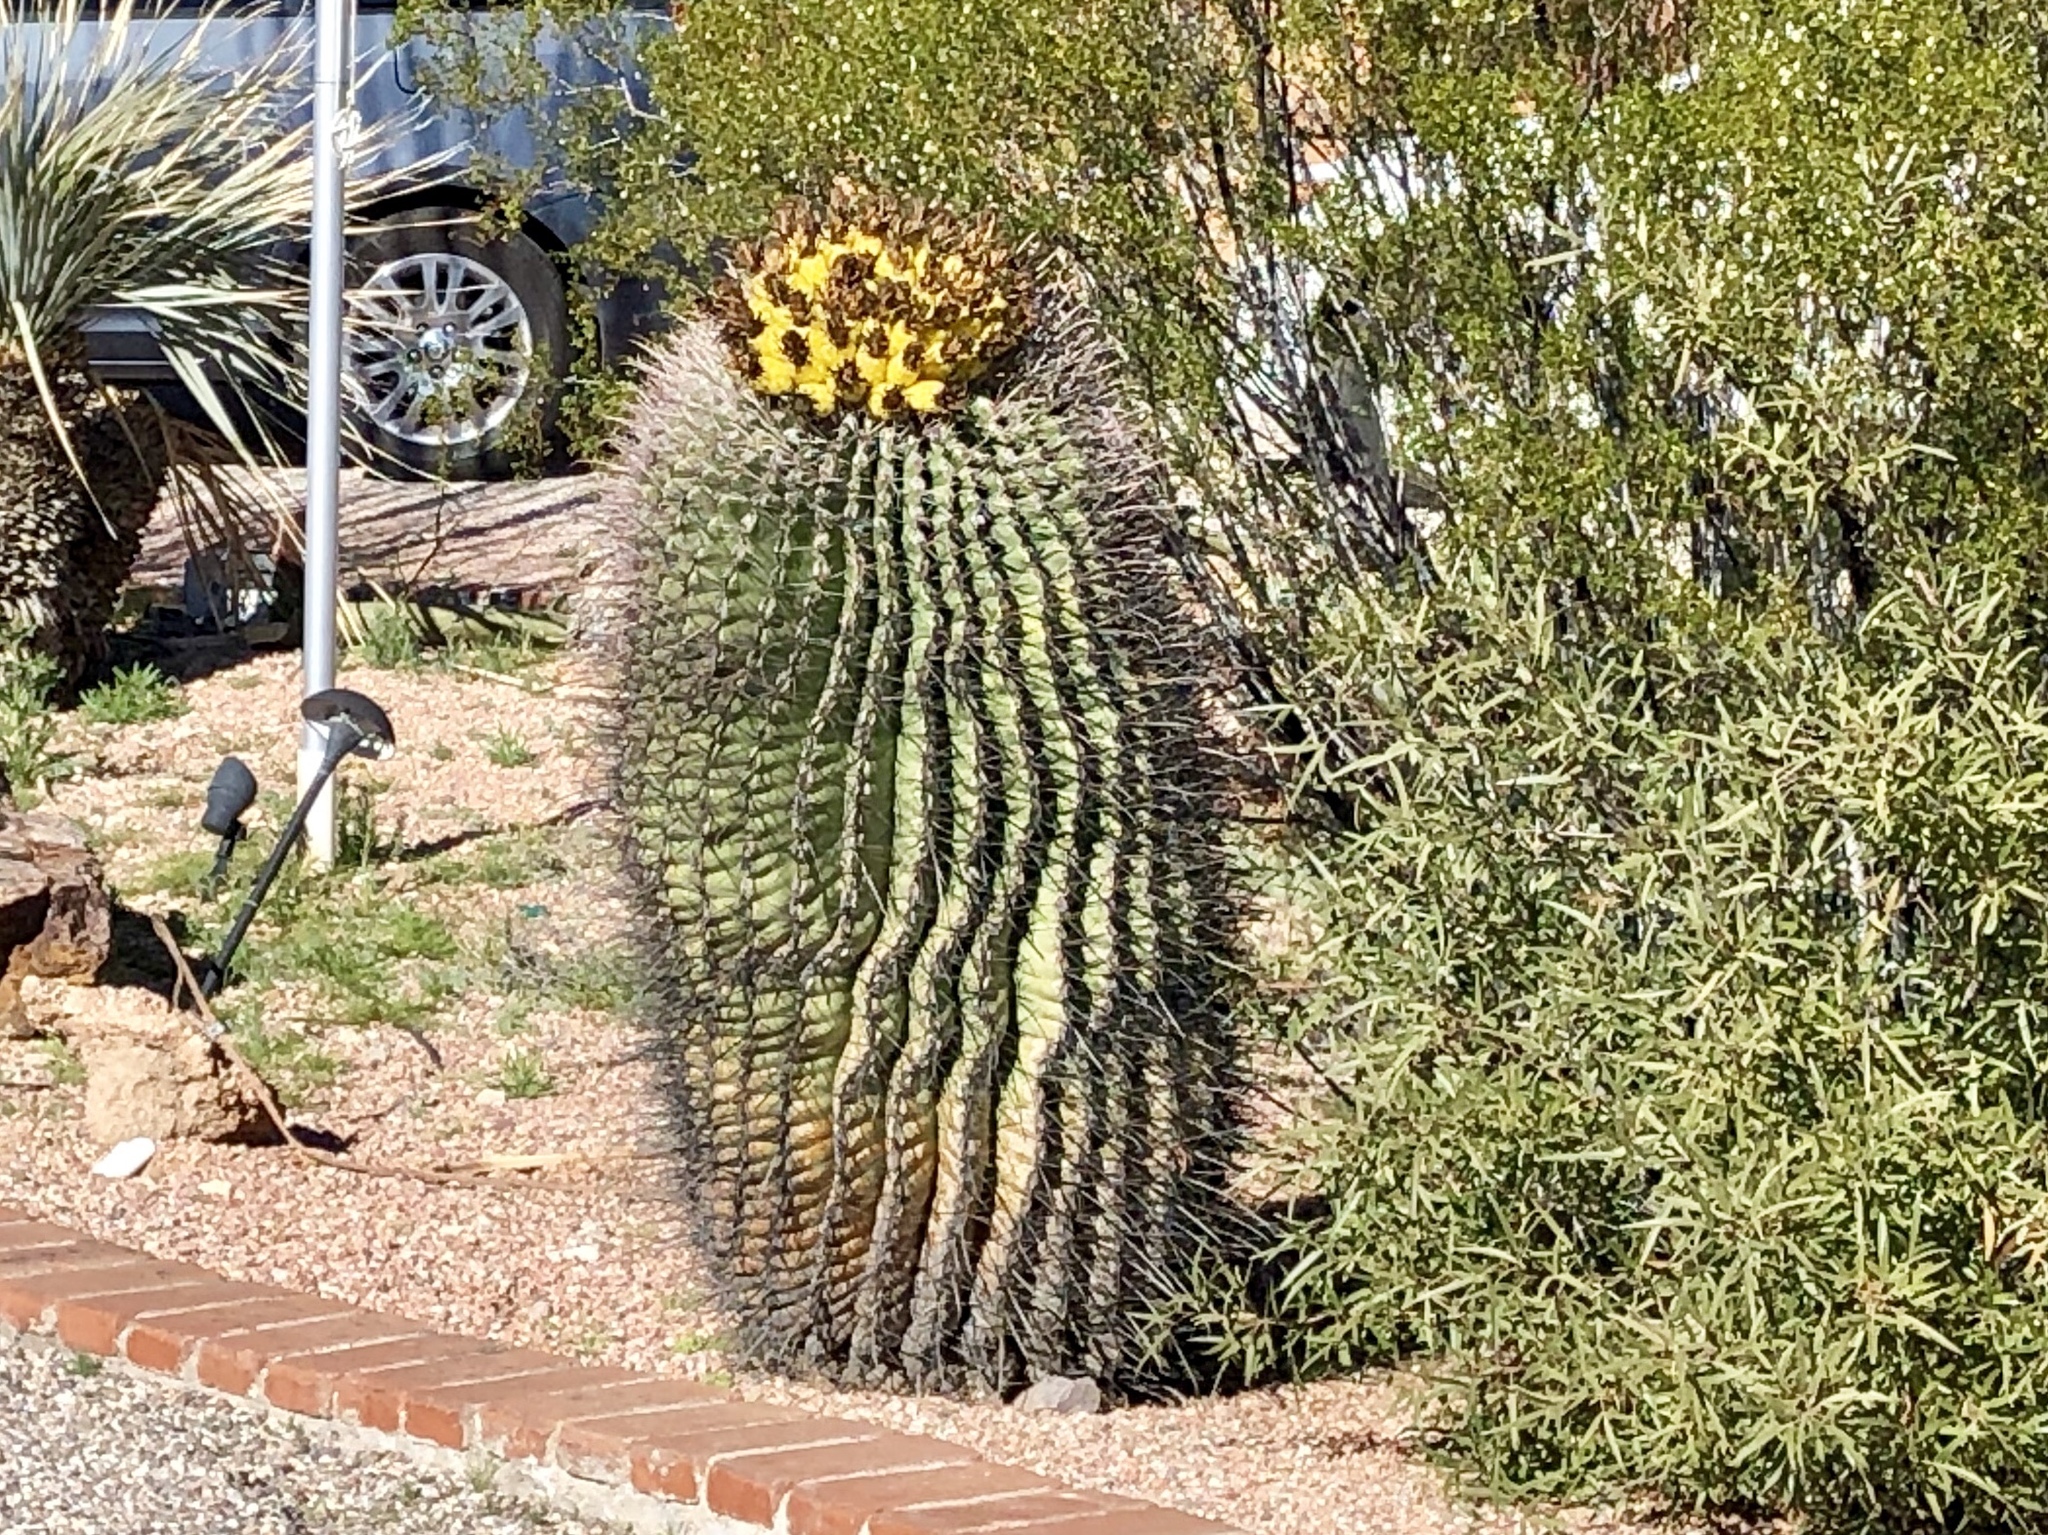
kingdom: Plantae
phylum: Tracheophyta
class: Magnoliopsida
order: Caryophyllales
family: Cactaceae
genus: Ferocactus
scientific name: Ferocactus wislizeni
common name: Candy barrel cactus
